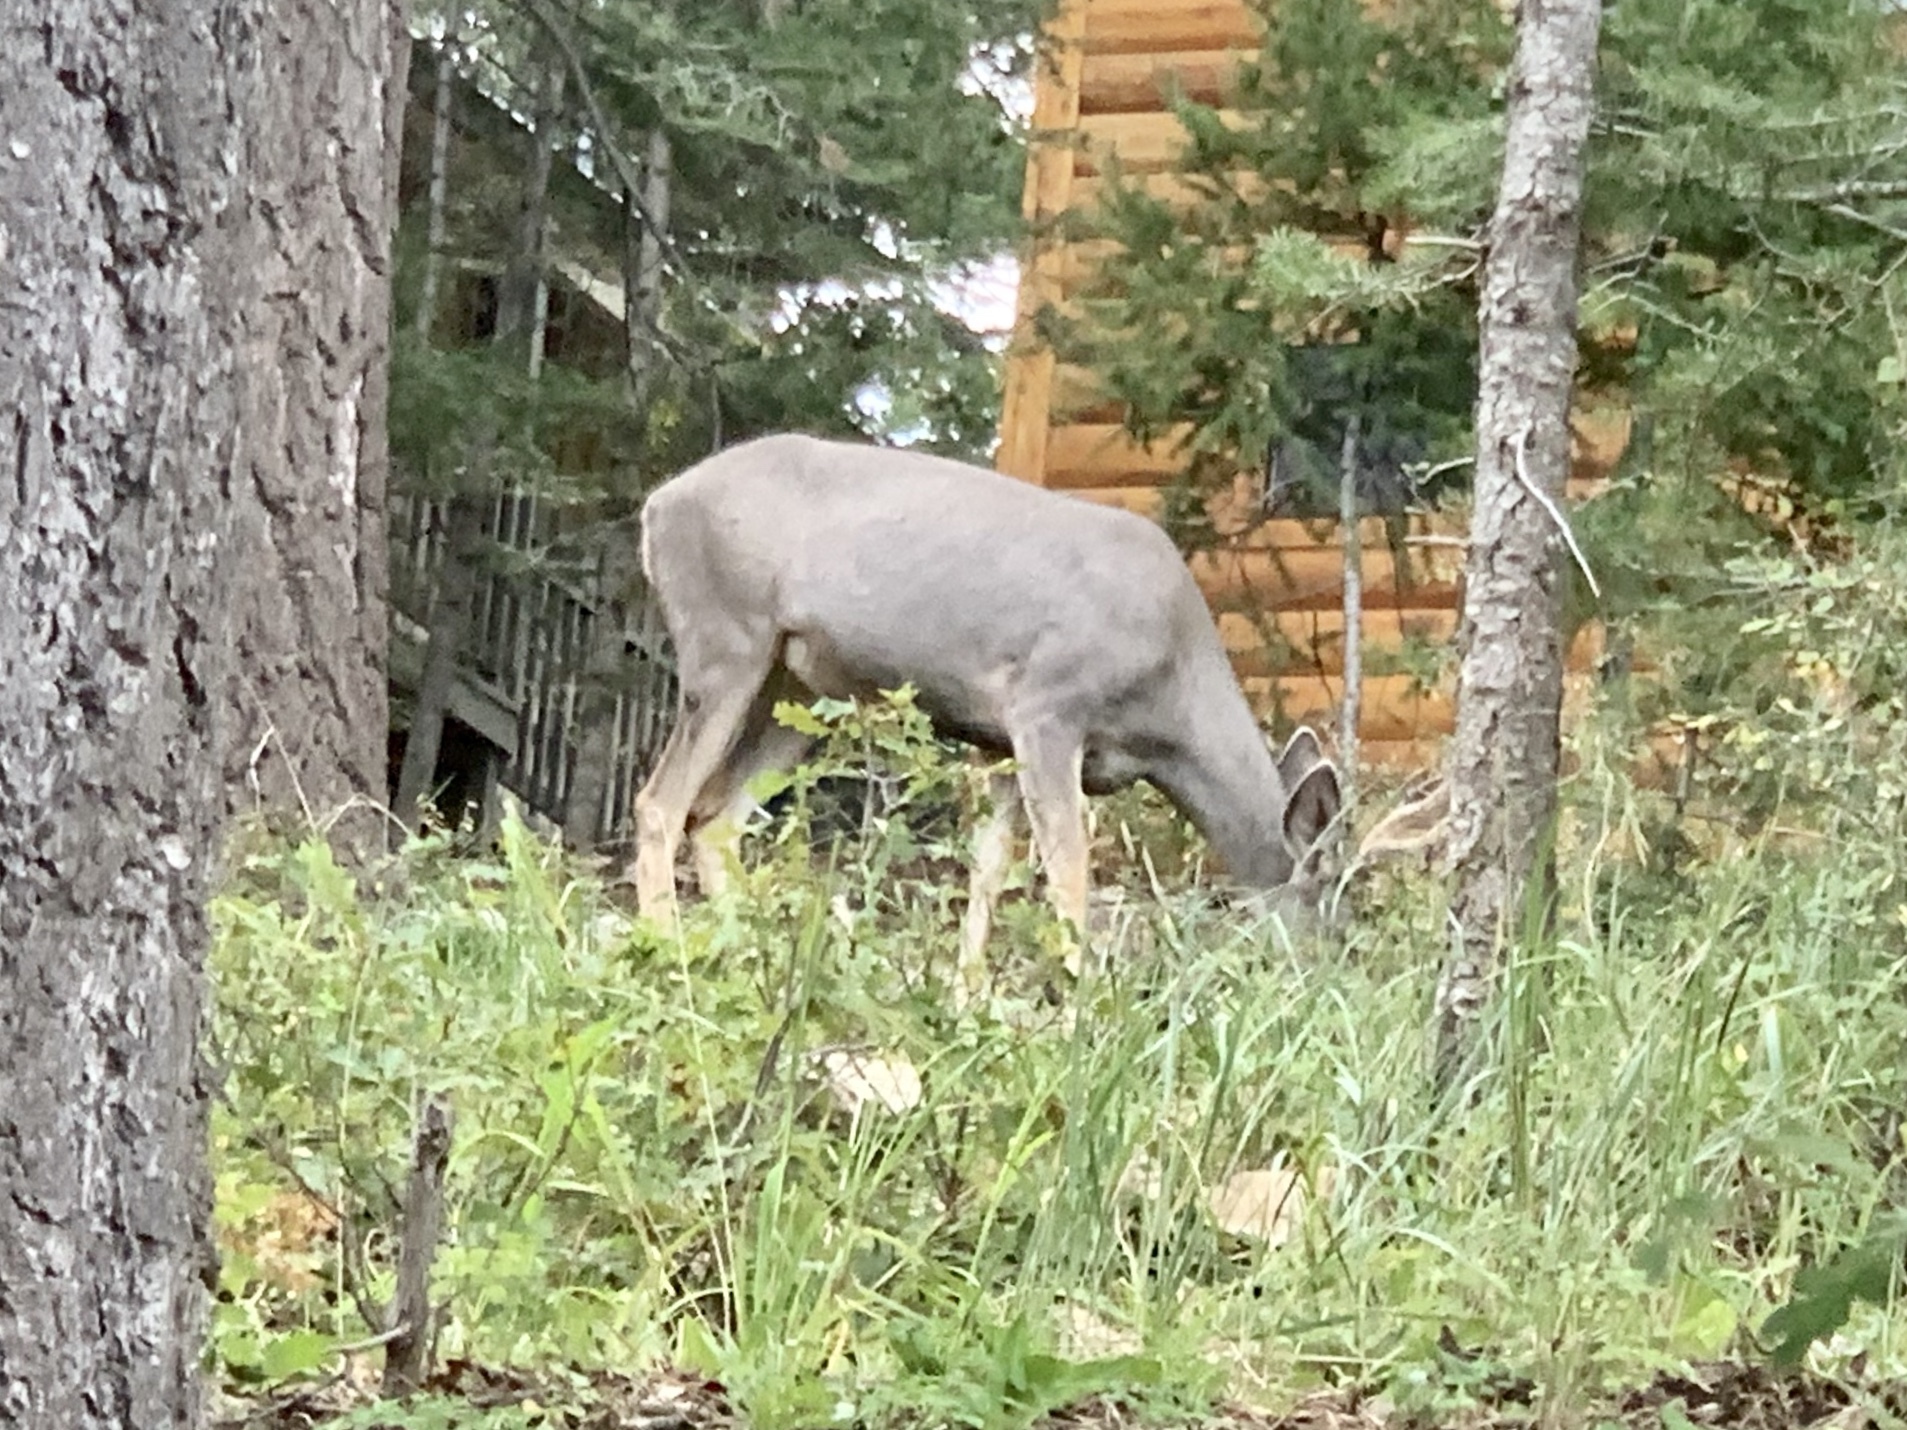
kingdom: Animalia
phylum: Chordata
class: Mammalia
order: Artiodactyla
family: Cervidae
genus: Odocoileus
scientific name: Odocoileus hemionus
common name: Mule deer
